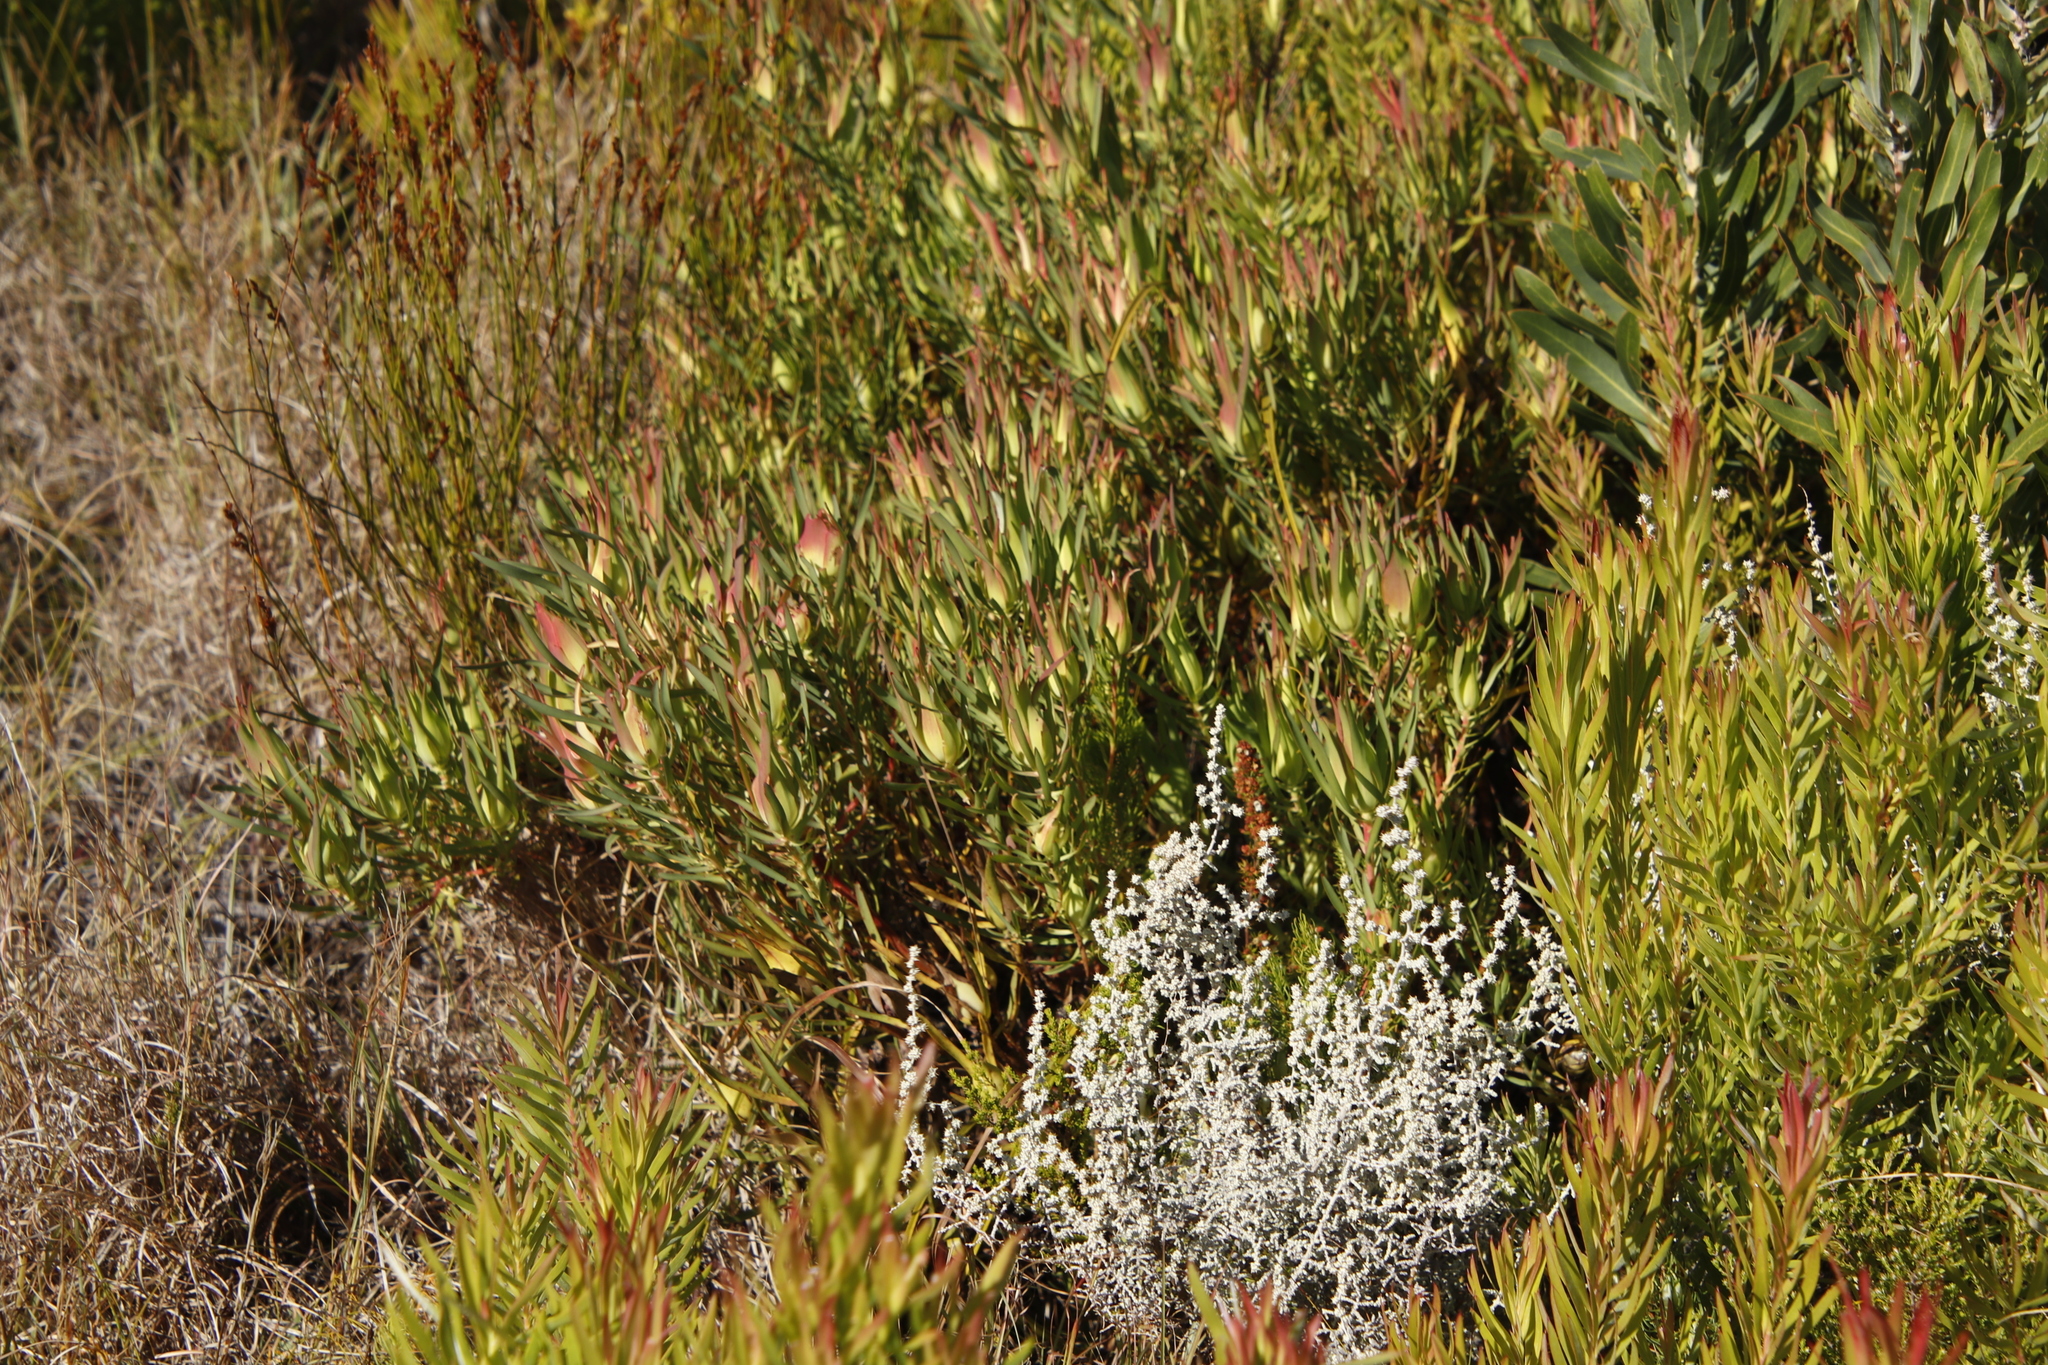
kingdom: Plantae
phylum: Tracheophyta
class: Magnoliopsida
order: Proteales
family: Proteaceae
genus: Leucadendron
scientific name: Leucadendron salignum
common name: Common sunshine conebush
